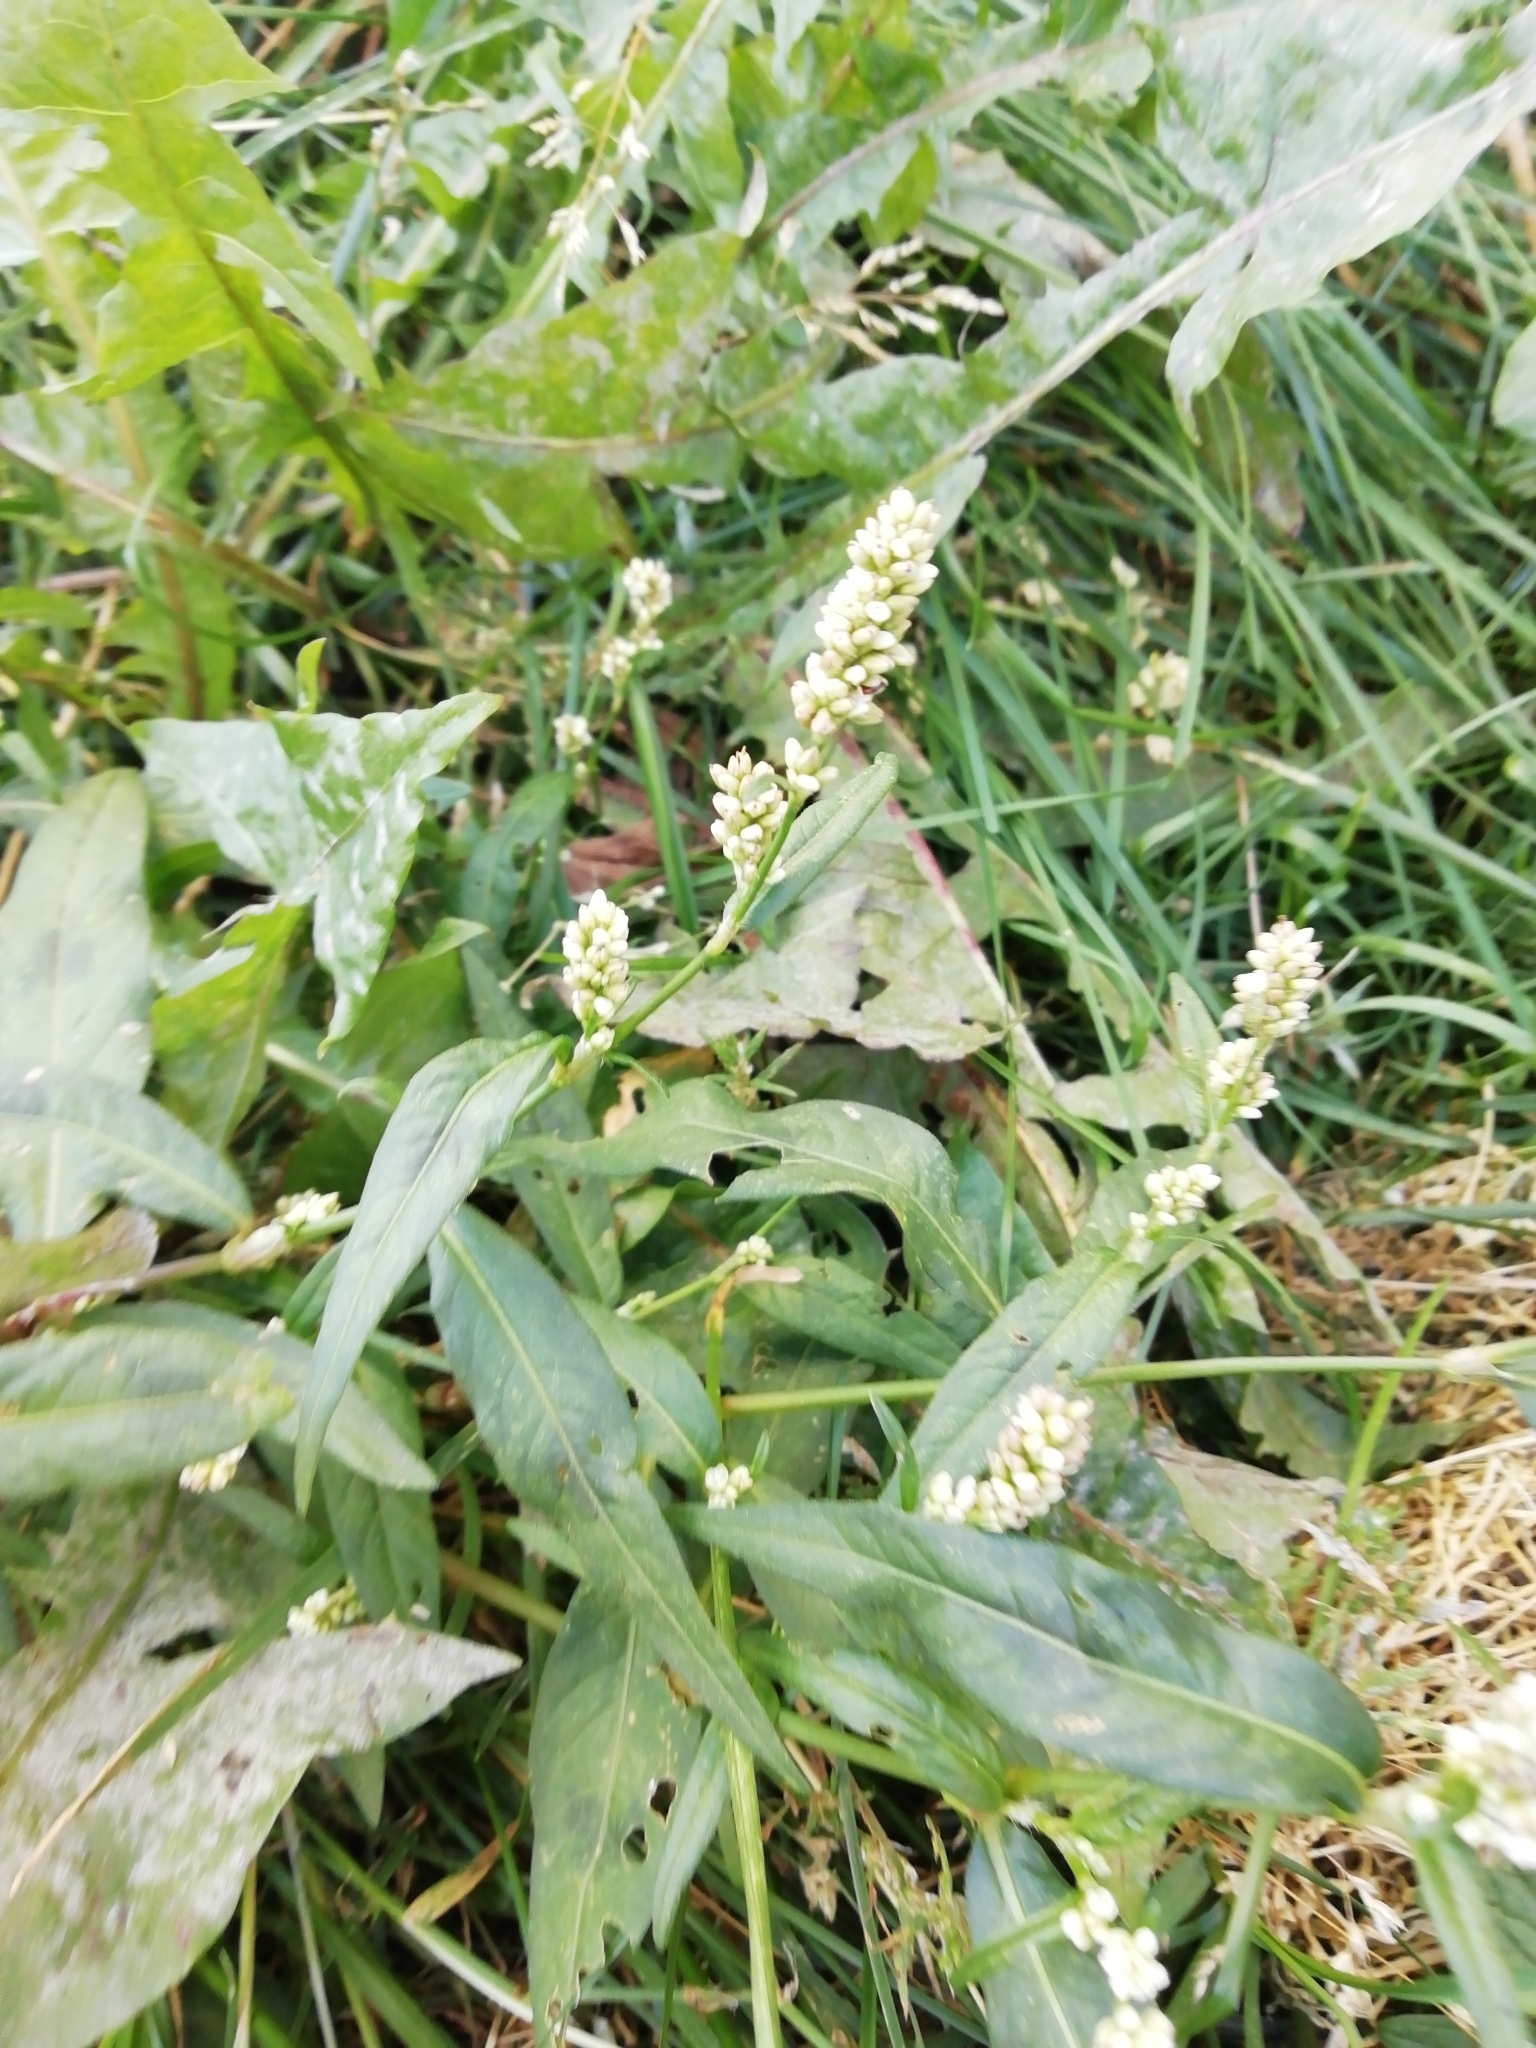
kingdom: Plantae
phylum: Tracheophyta
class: Magnoliopsida
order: Caryophyllales
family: Polygonaceae
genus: Persicaria
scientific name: Persicaria maculosa
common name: Redshank
